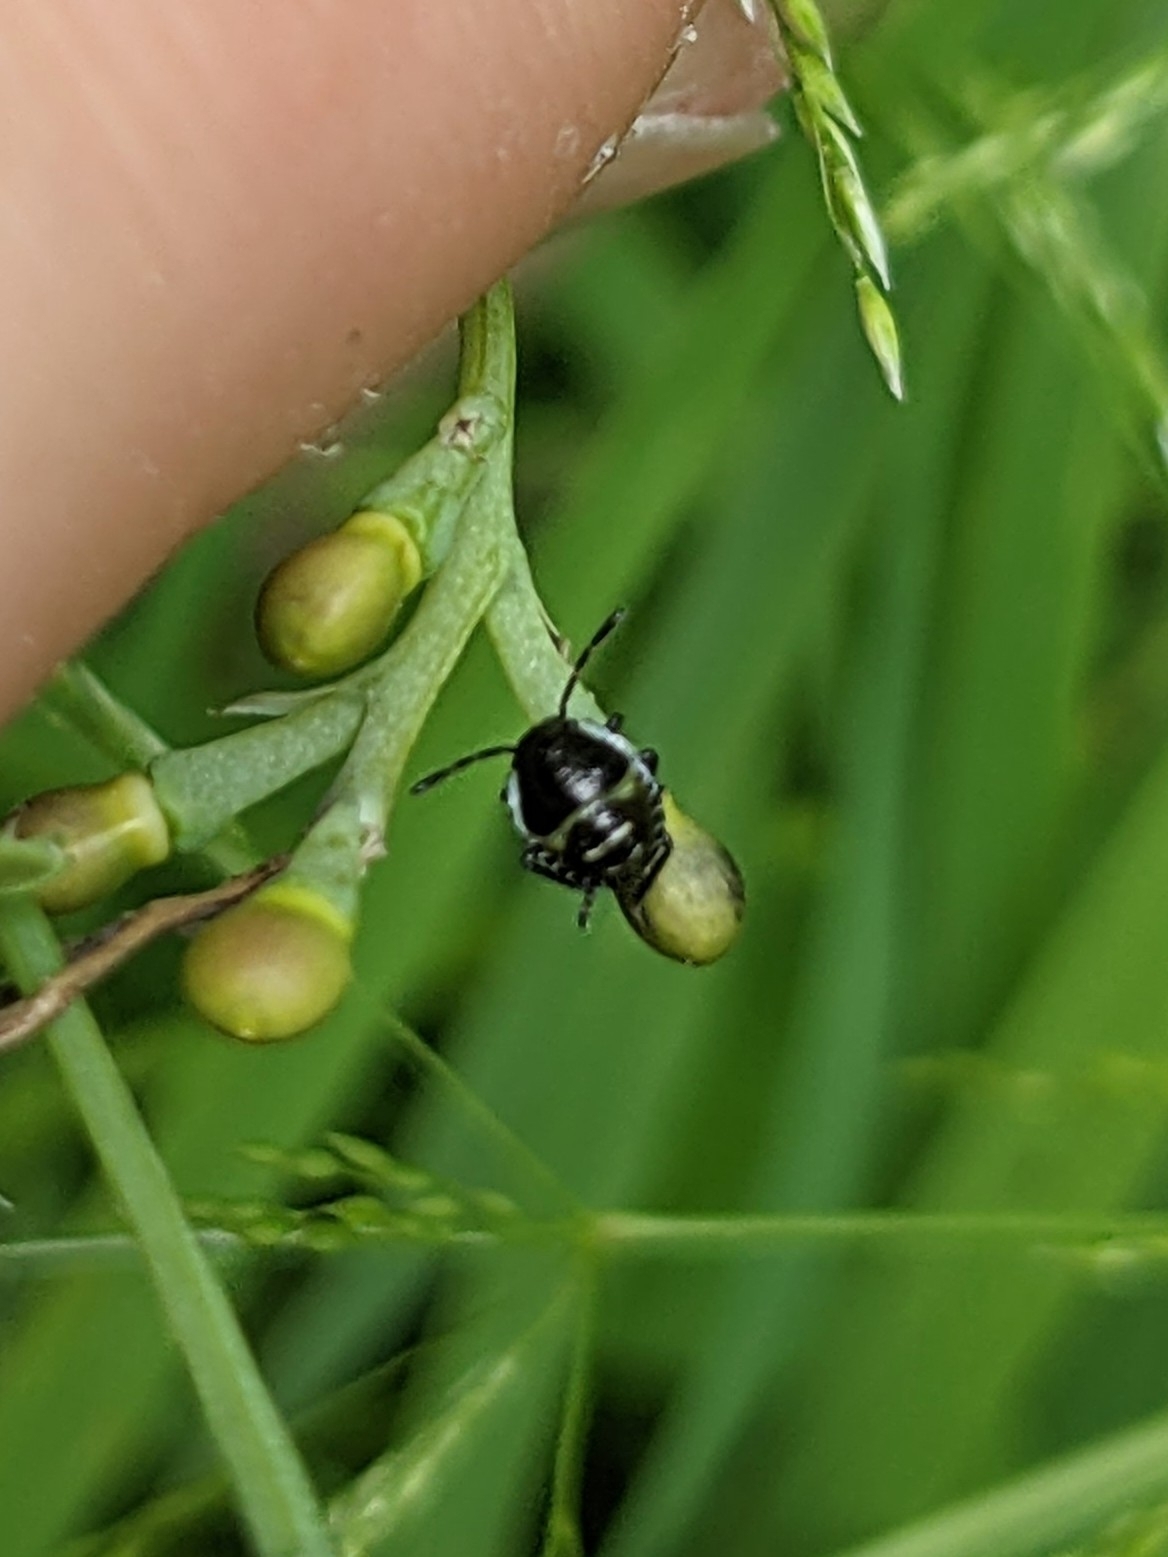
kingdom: Animalia
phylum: Arthropoda
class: Insecta
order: Hemiptera
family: Pentatomidae
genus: Palomena
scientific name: Palomena prasina
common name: Green shieldbug
